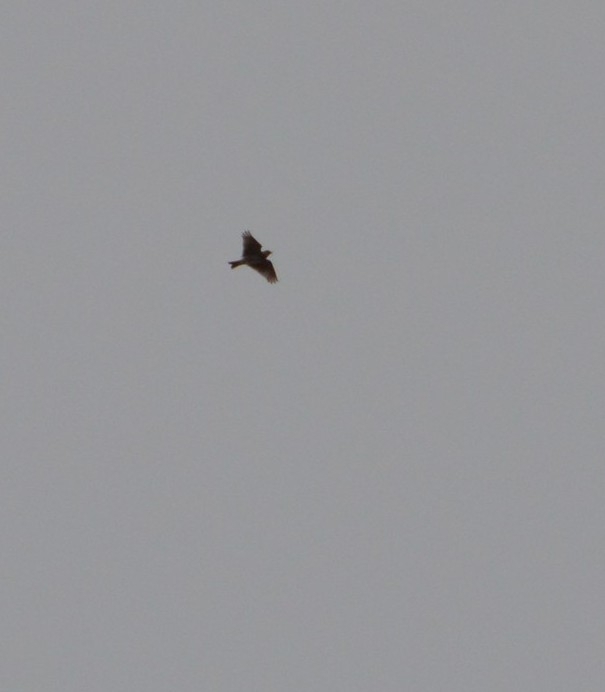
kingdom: Animalia
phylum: Chordata
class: Aves
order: Passeriformes
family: Alaudidae
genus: Alauda
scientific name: Alauda arvensis
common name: Eurasian skylark
